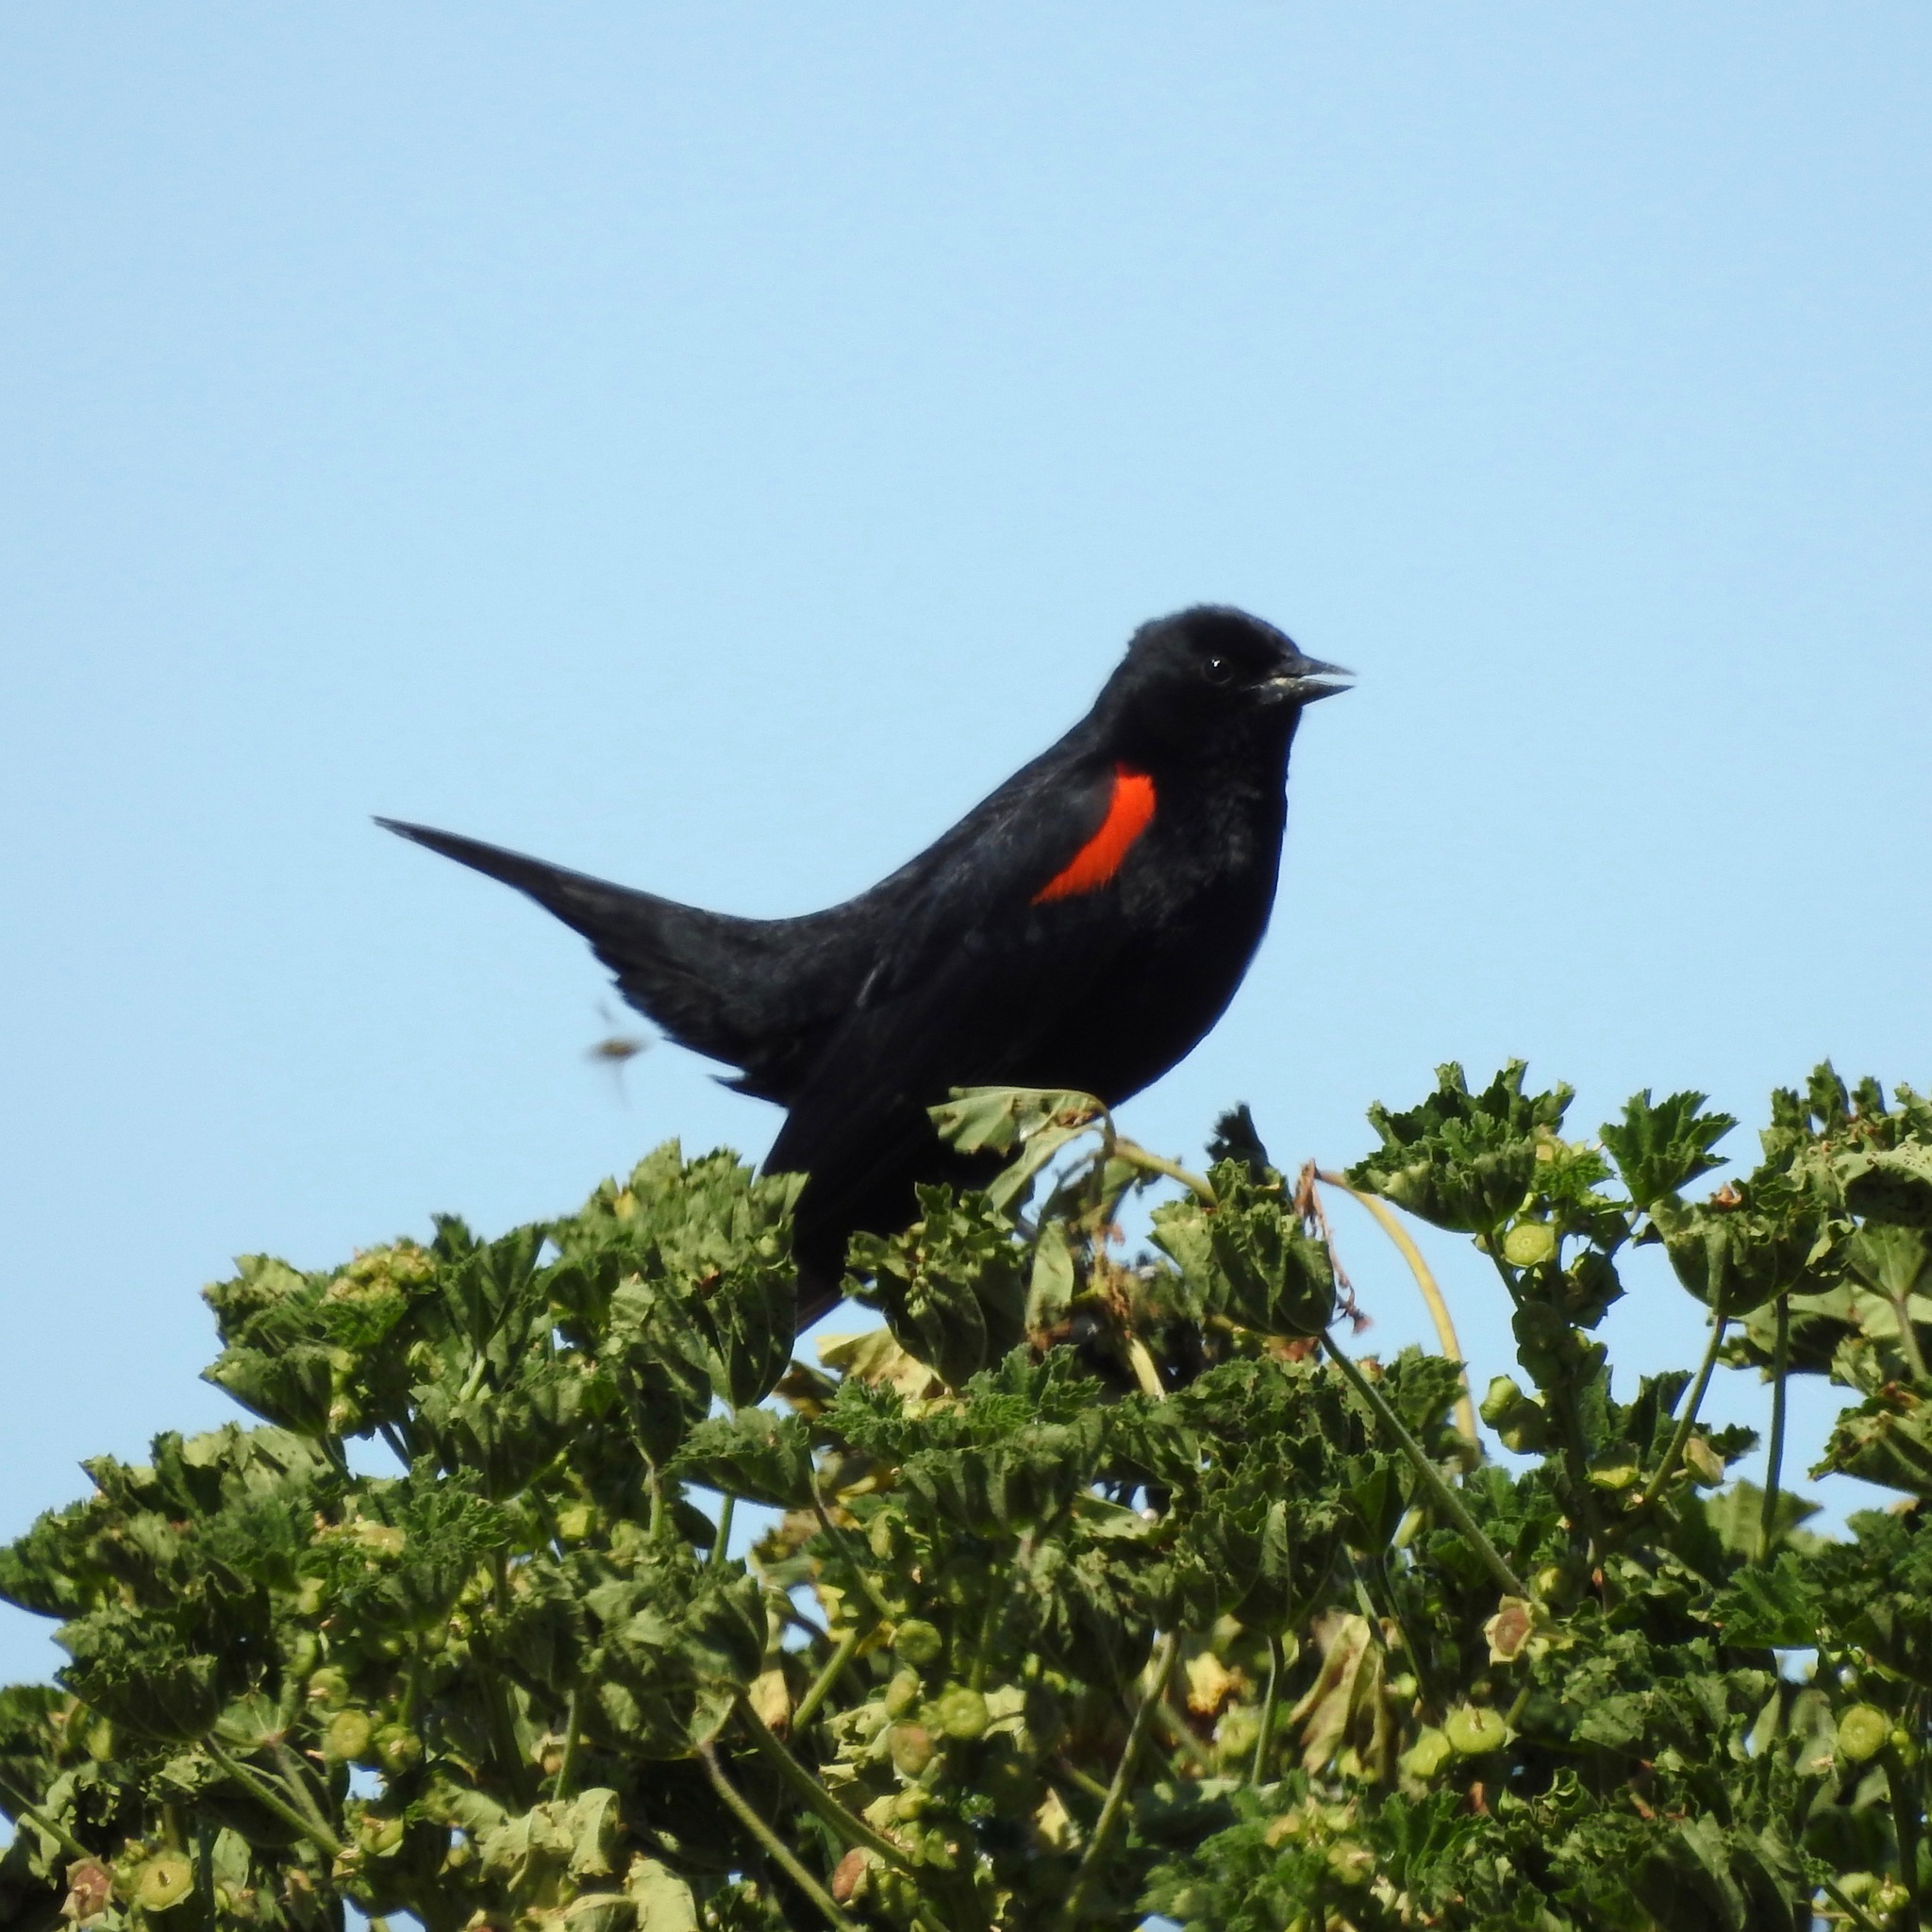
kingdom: Animalia
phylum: Chordata
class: Aves
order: Passeriformes
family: Icteridae
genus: Agelaius
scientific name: Agelaius phoeniceus
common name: Red-winged blackbird
